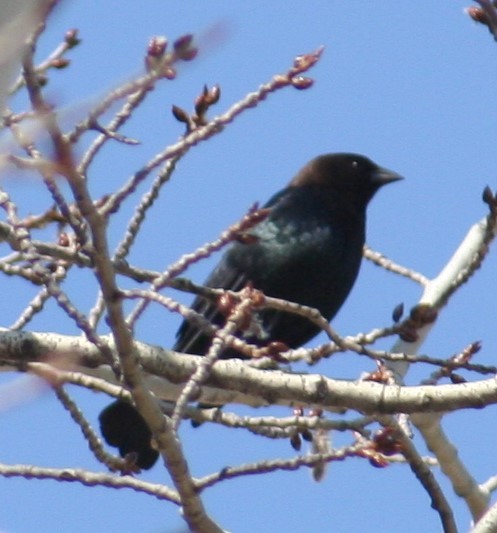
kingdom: Animalia
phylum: Chordata
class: Aves
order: Passeriformes
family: Icteridae
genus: Molothrus
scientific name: Molothrus ater
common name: Brown-headed cowbird
